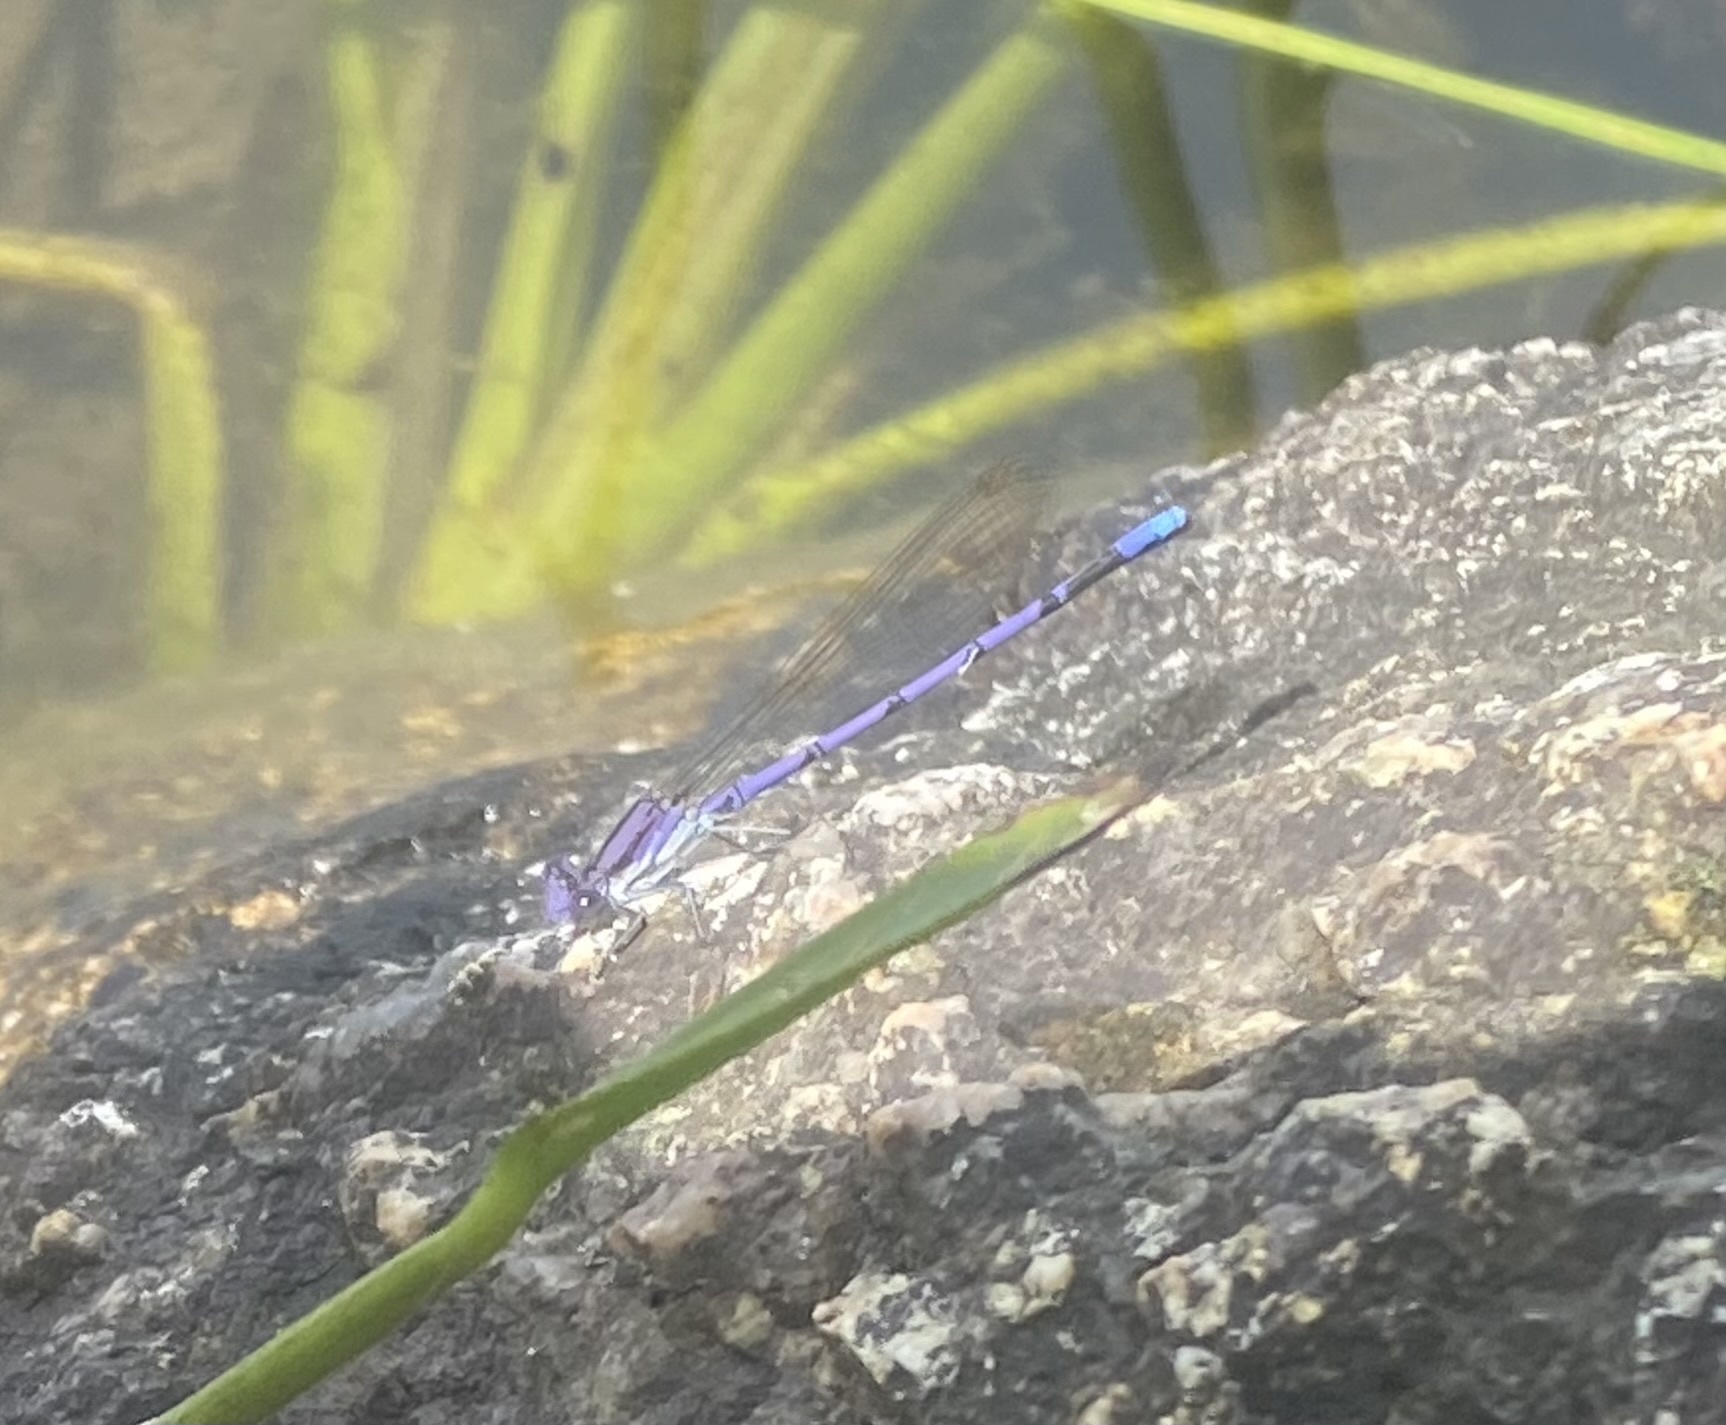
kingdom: Animalia
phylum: Arthropoda
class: Insecta
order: Odonata
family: Coenagrionidae
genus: Argia
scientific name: Argia fumipennis
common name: Variable dancer
